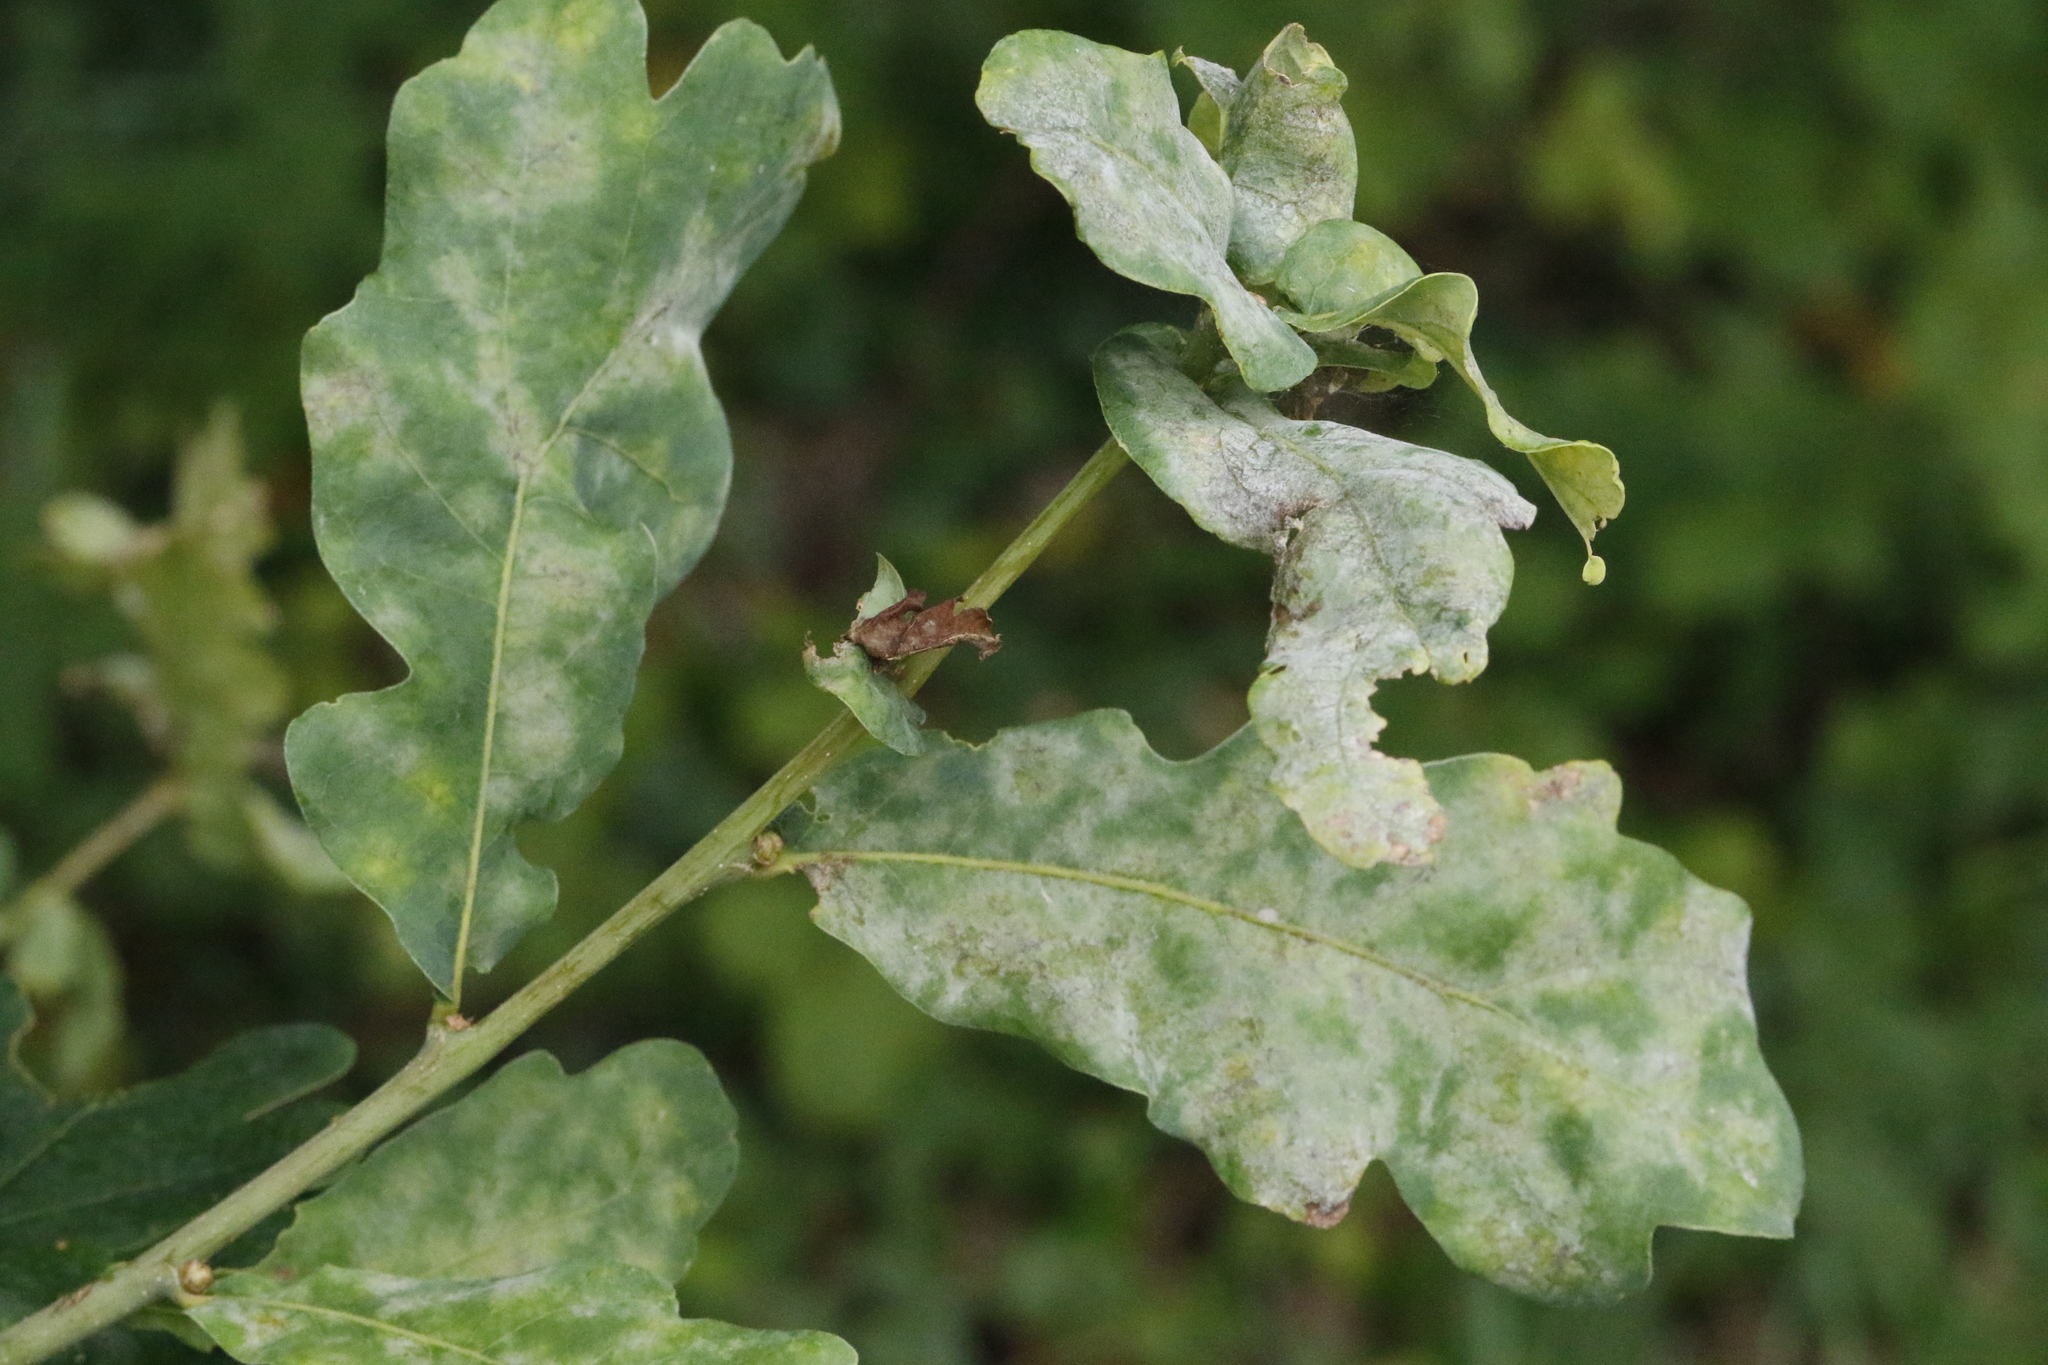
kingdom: Fungi
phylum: Ascomycota
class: Leotiomycetes
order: Helotiales
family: Erysiphaceae
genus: Erysiphe
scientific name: Erysiphe alphitoides
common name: Oak mildew
